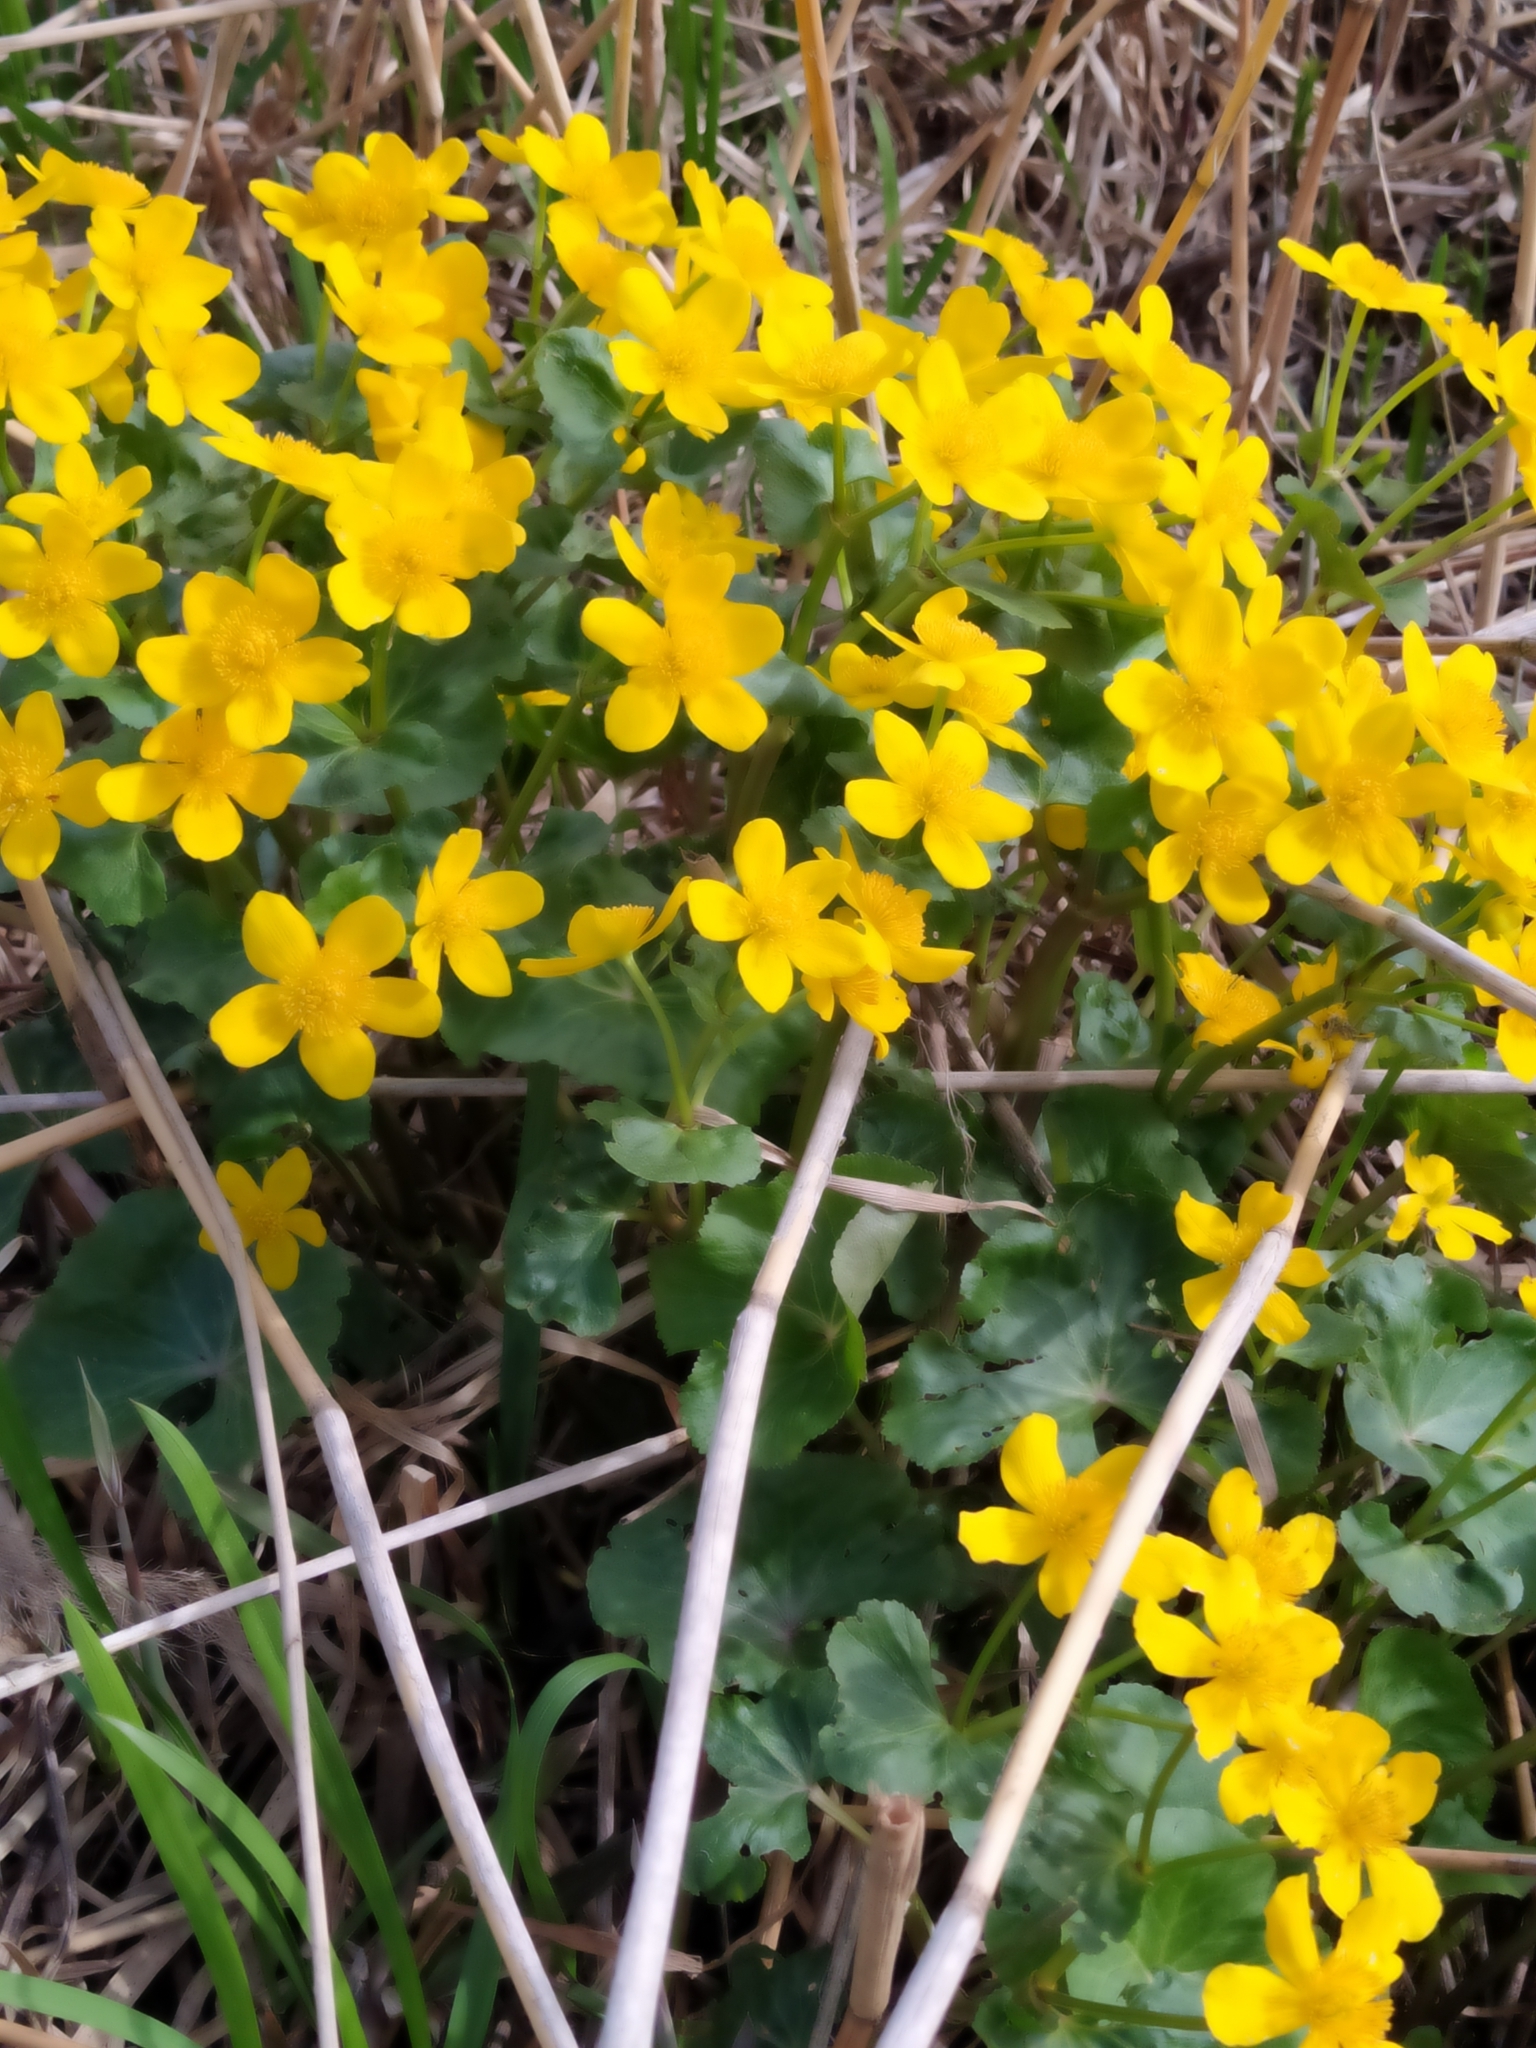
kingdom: Plantae
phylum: Tracheophyta
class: Magnoliopsida
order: Ranunculales
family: Ranunculaceae
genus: Caltha
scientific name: Caltha palustris
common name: Marsh marigold
